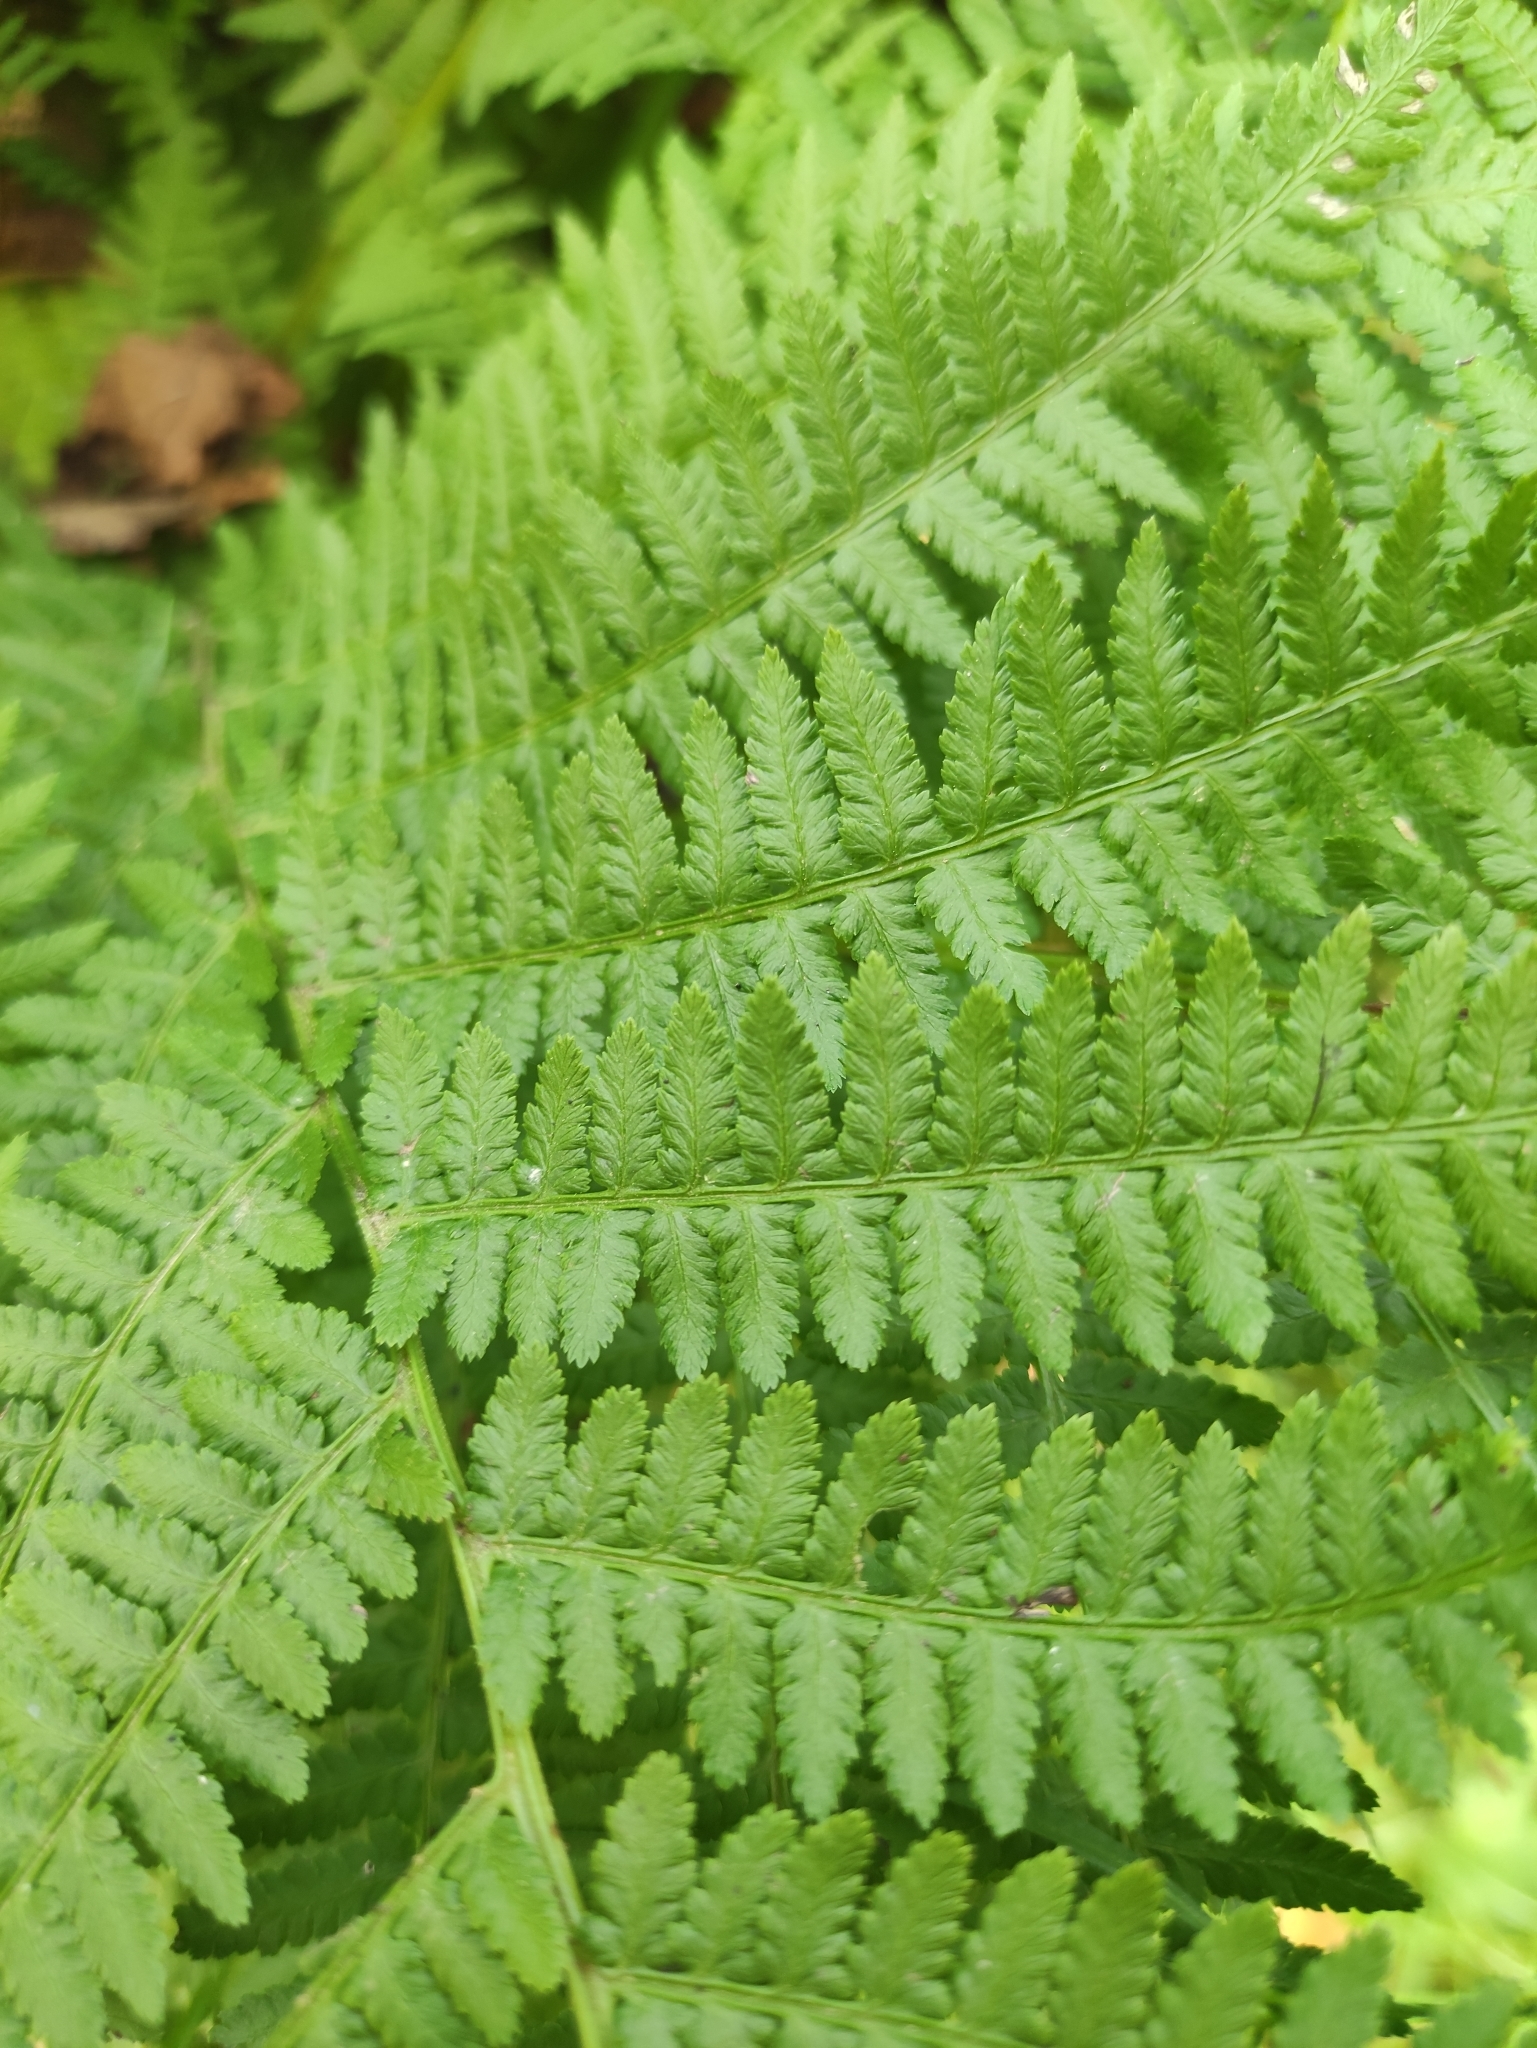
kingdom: Plantae
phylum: Tracheophyta
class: Polypodiopsida
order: Polypodiales
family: Athyriaceae
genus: Athyrium
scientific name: Athyrium filix-femina
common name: Lady fern
